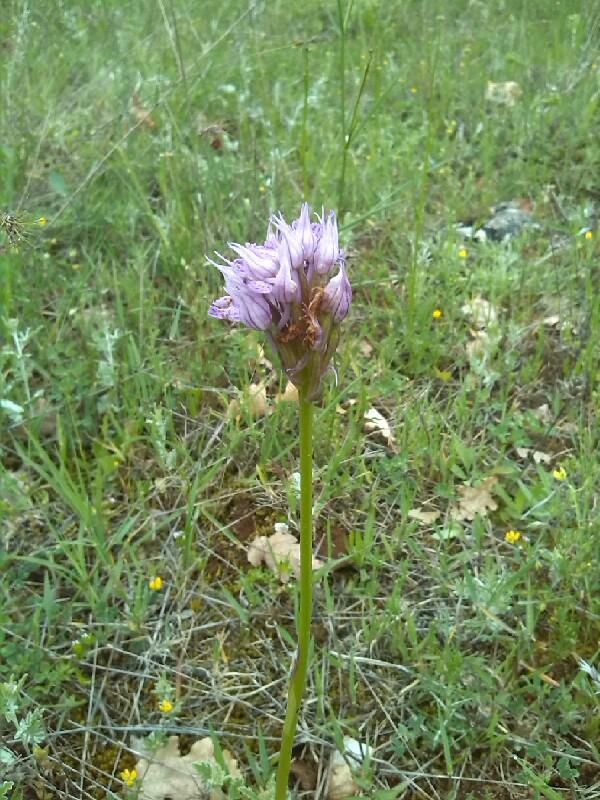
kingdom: Plantae
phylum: Tracheophyta
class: Liliopsida
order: Asparagales
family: Orchidaceae
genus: Neotinea
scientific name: Neotinea tridentata
